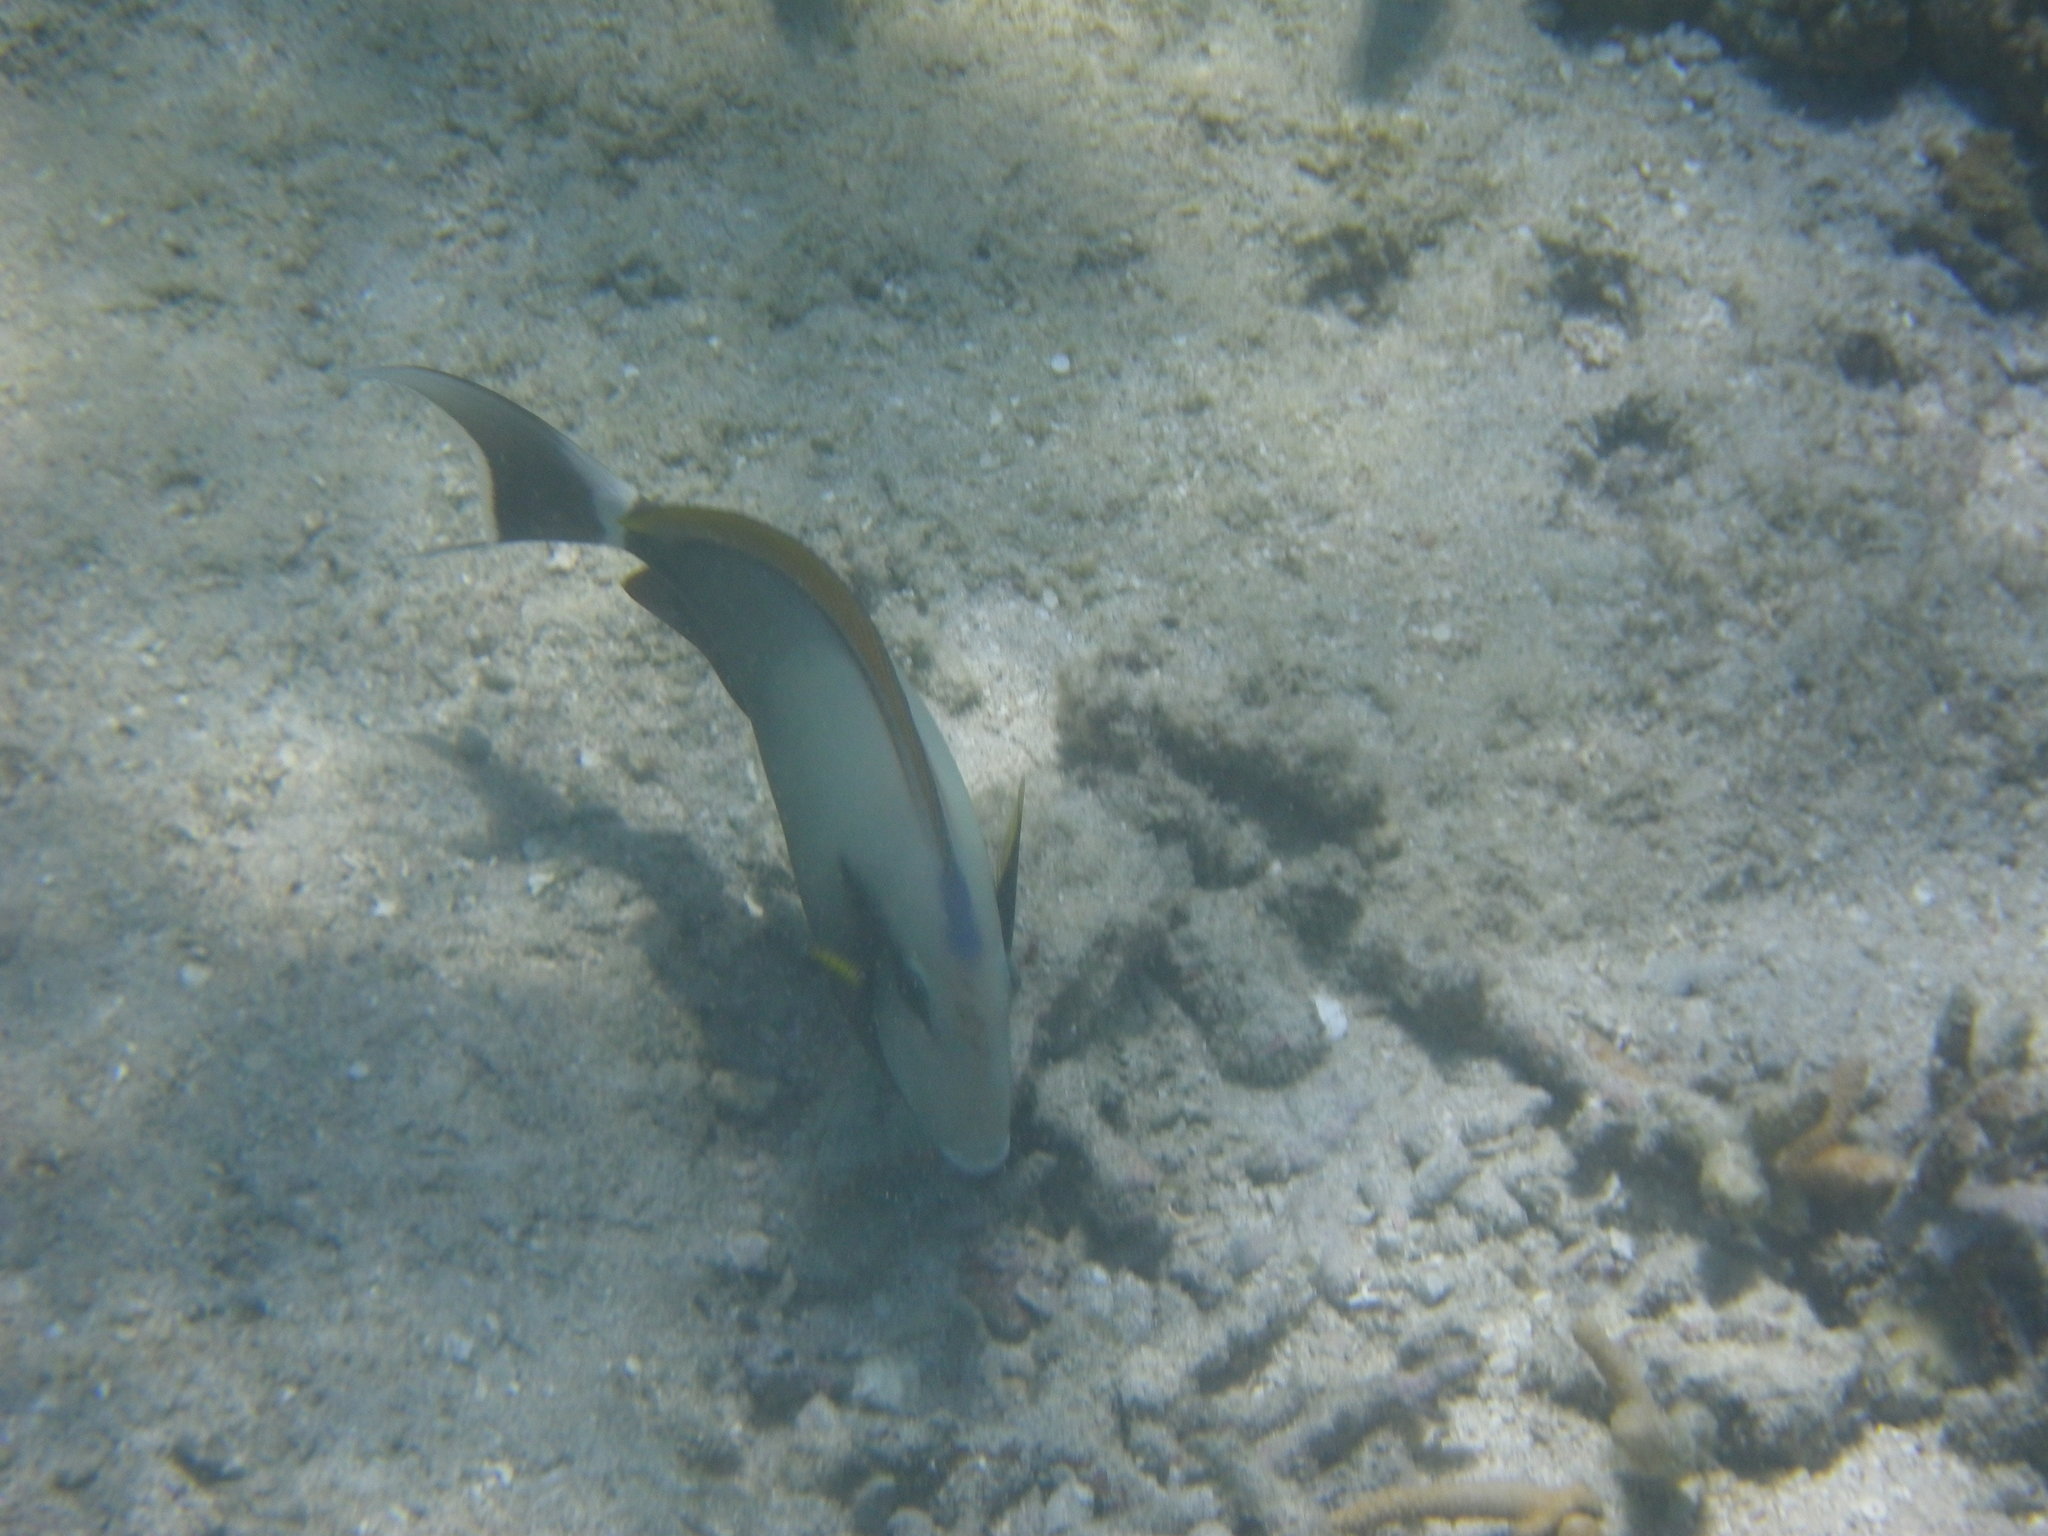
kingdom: Animalia
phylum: Chordata
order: Perciformes
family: Acanthuridae
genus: Acanthurus
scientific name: Acanthurus nigricauda
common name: Black-barred surgeonfish
